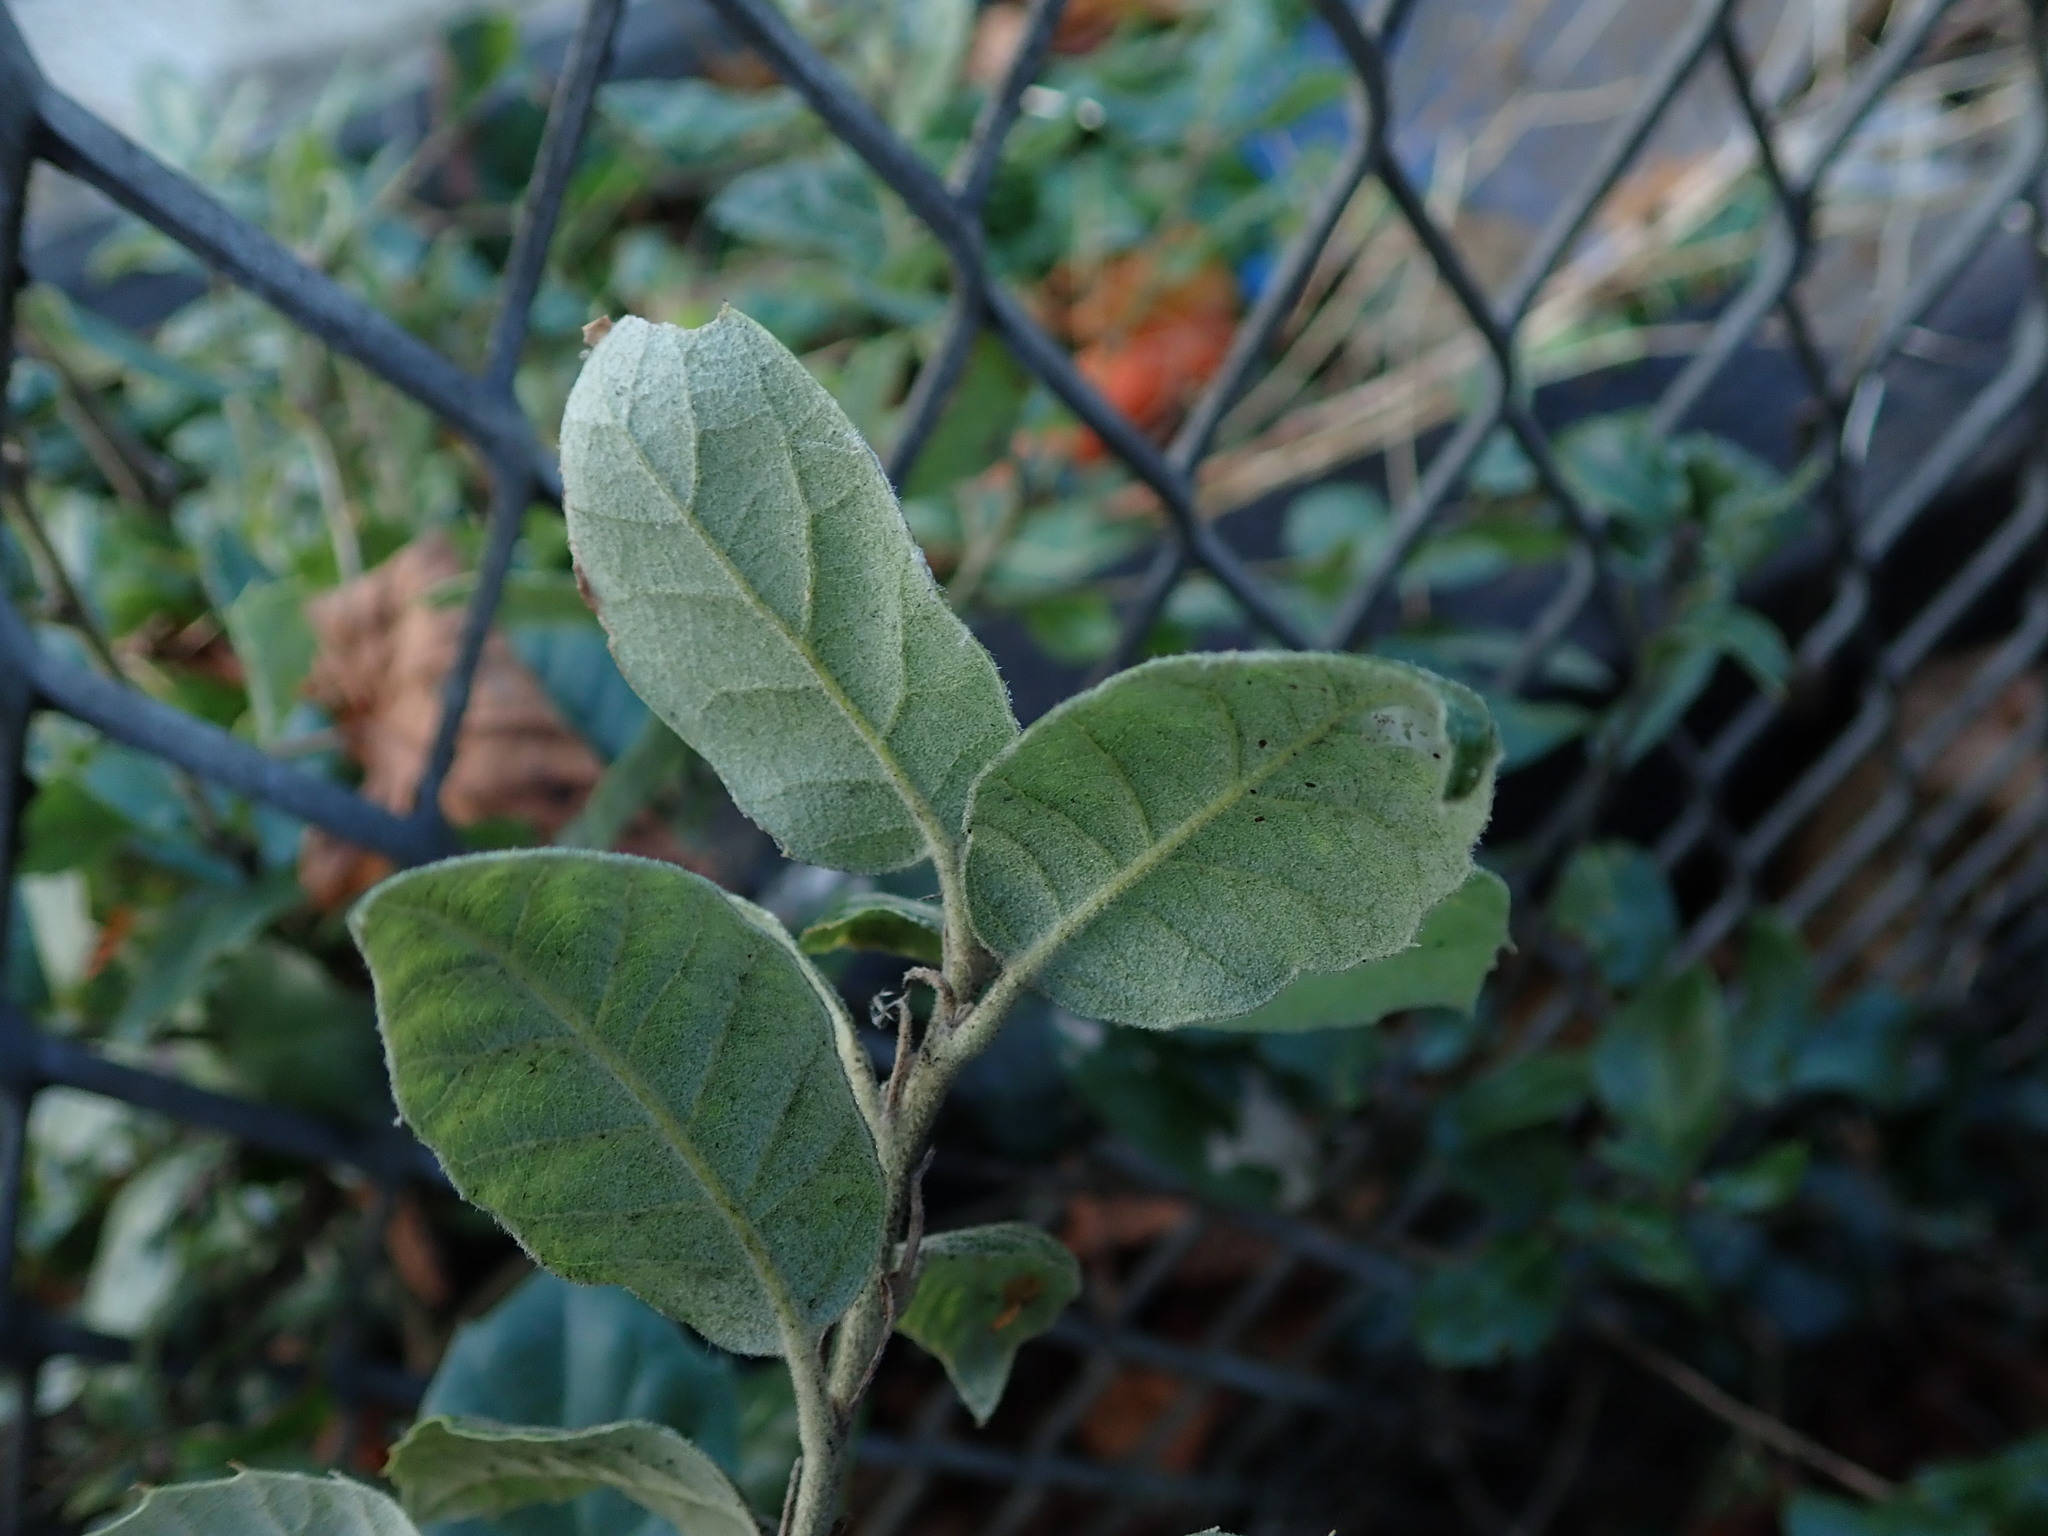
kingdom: Plantae
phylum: Tracheophyta
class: Magnoliopsida
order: Fagales
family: Fagaceae
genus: Quercus
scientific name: Quercus ilex
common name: Evergreen oak
